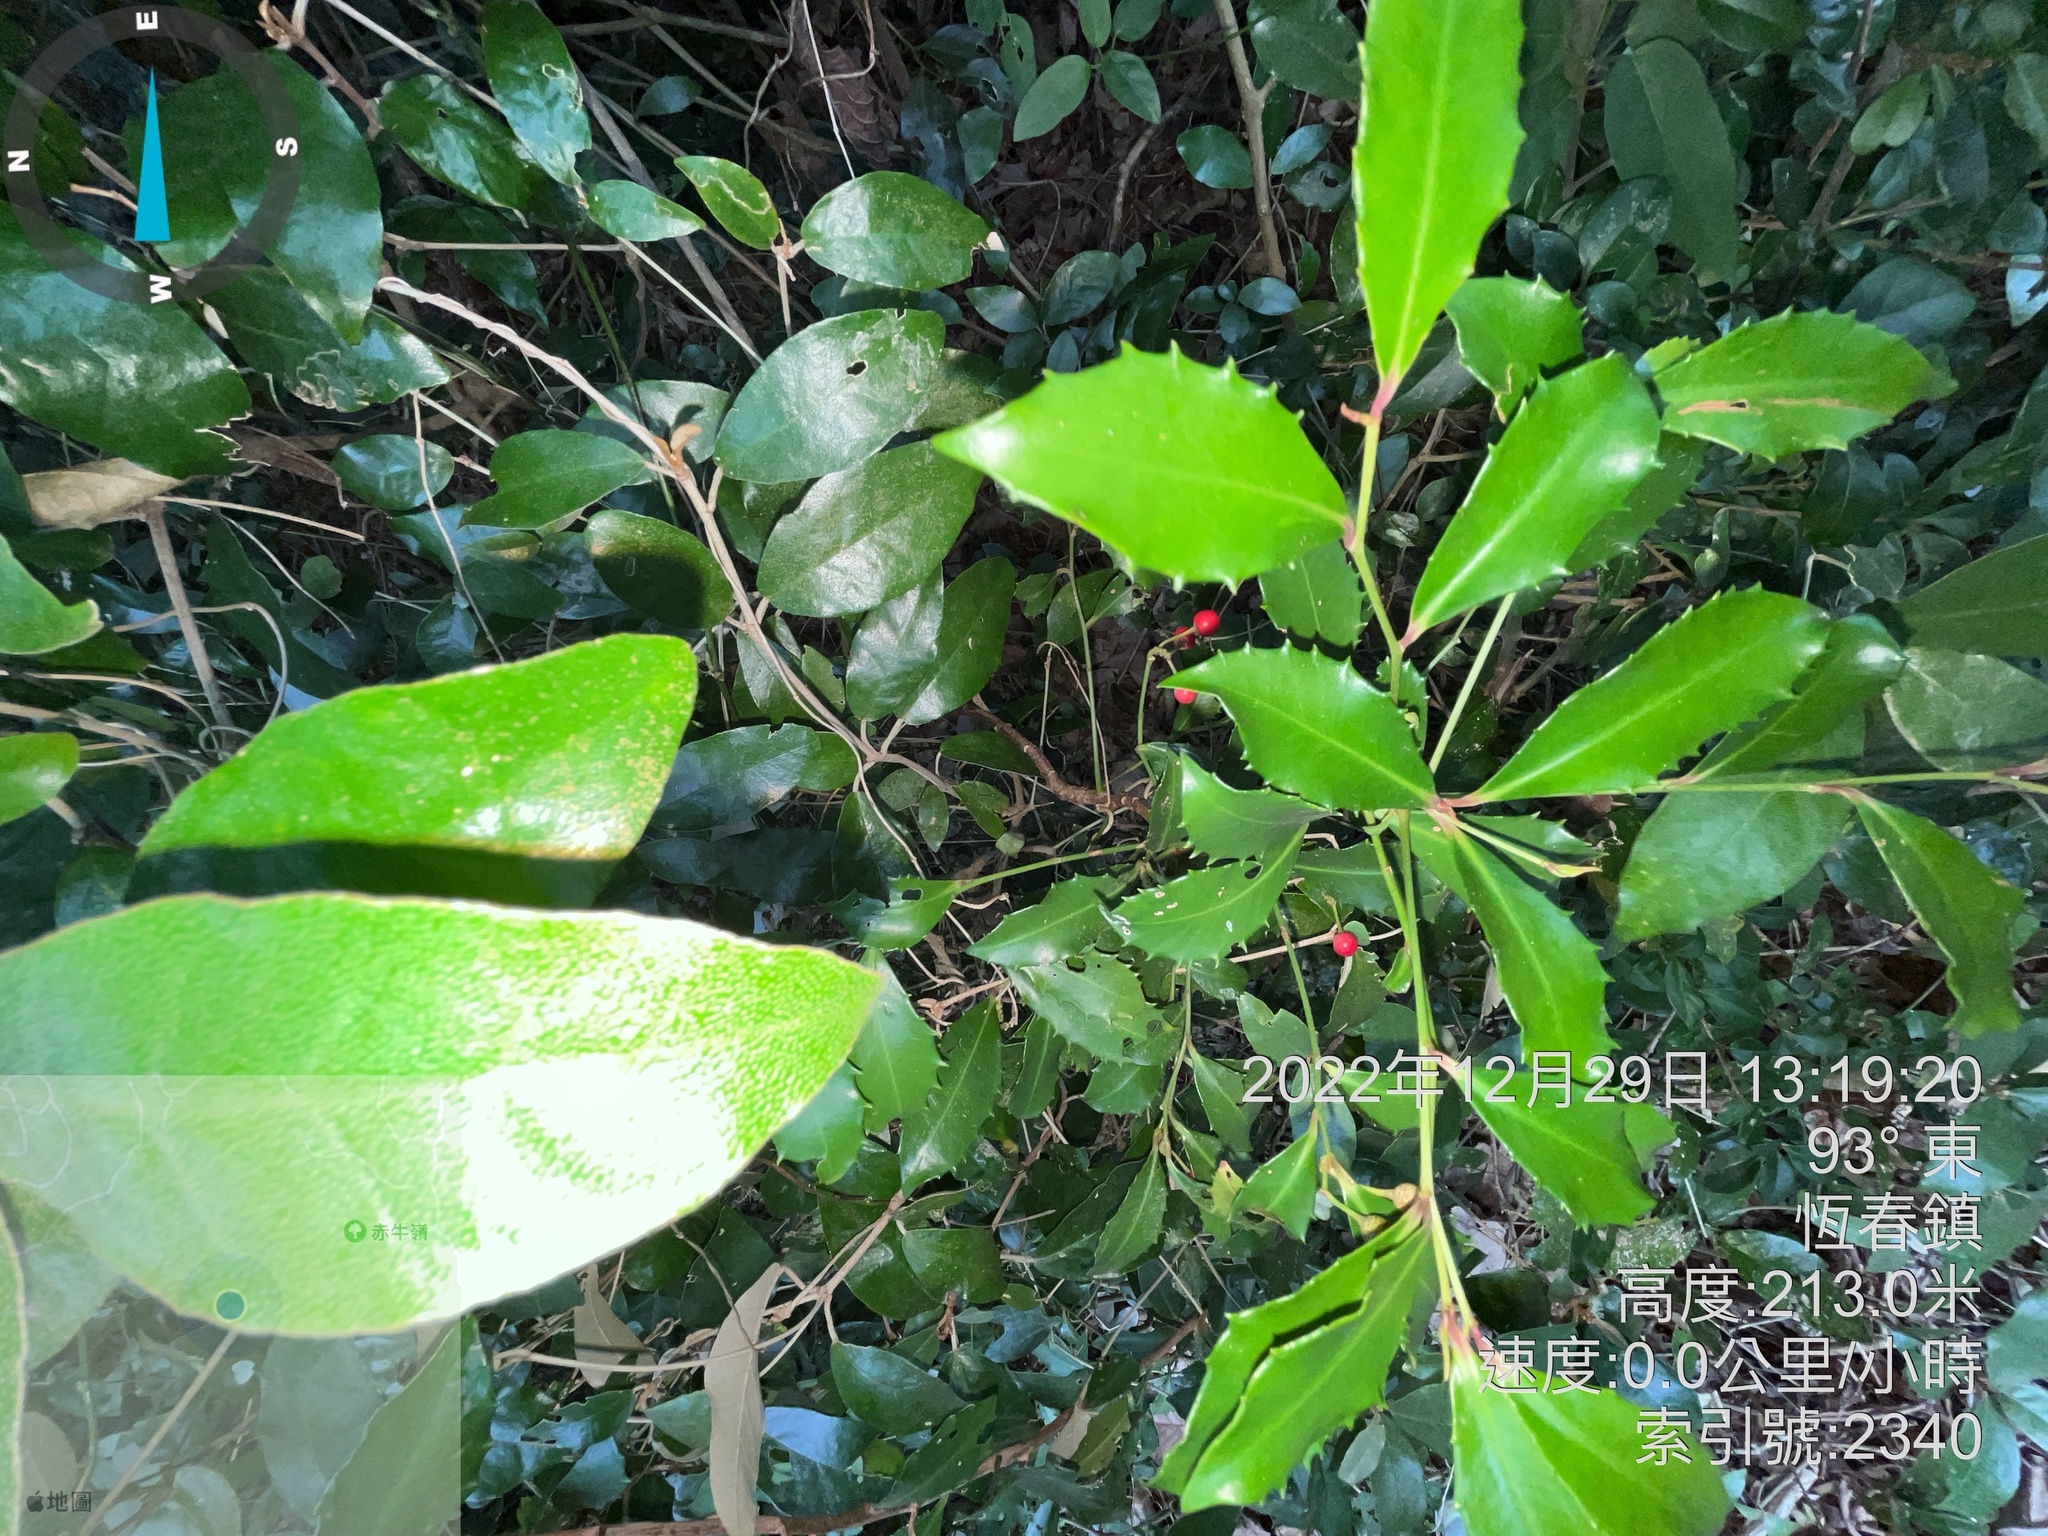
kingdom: Plantae
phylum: Tracheophyta
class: Magnoliopsida
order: Ericales
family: Primulaceae
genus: Ardisia
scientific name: Ardisia cornudentata
